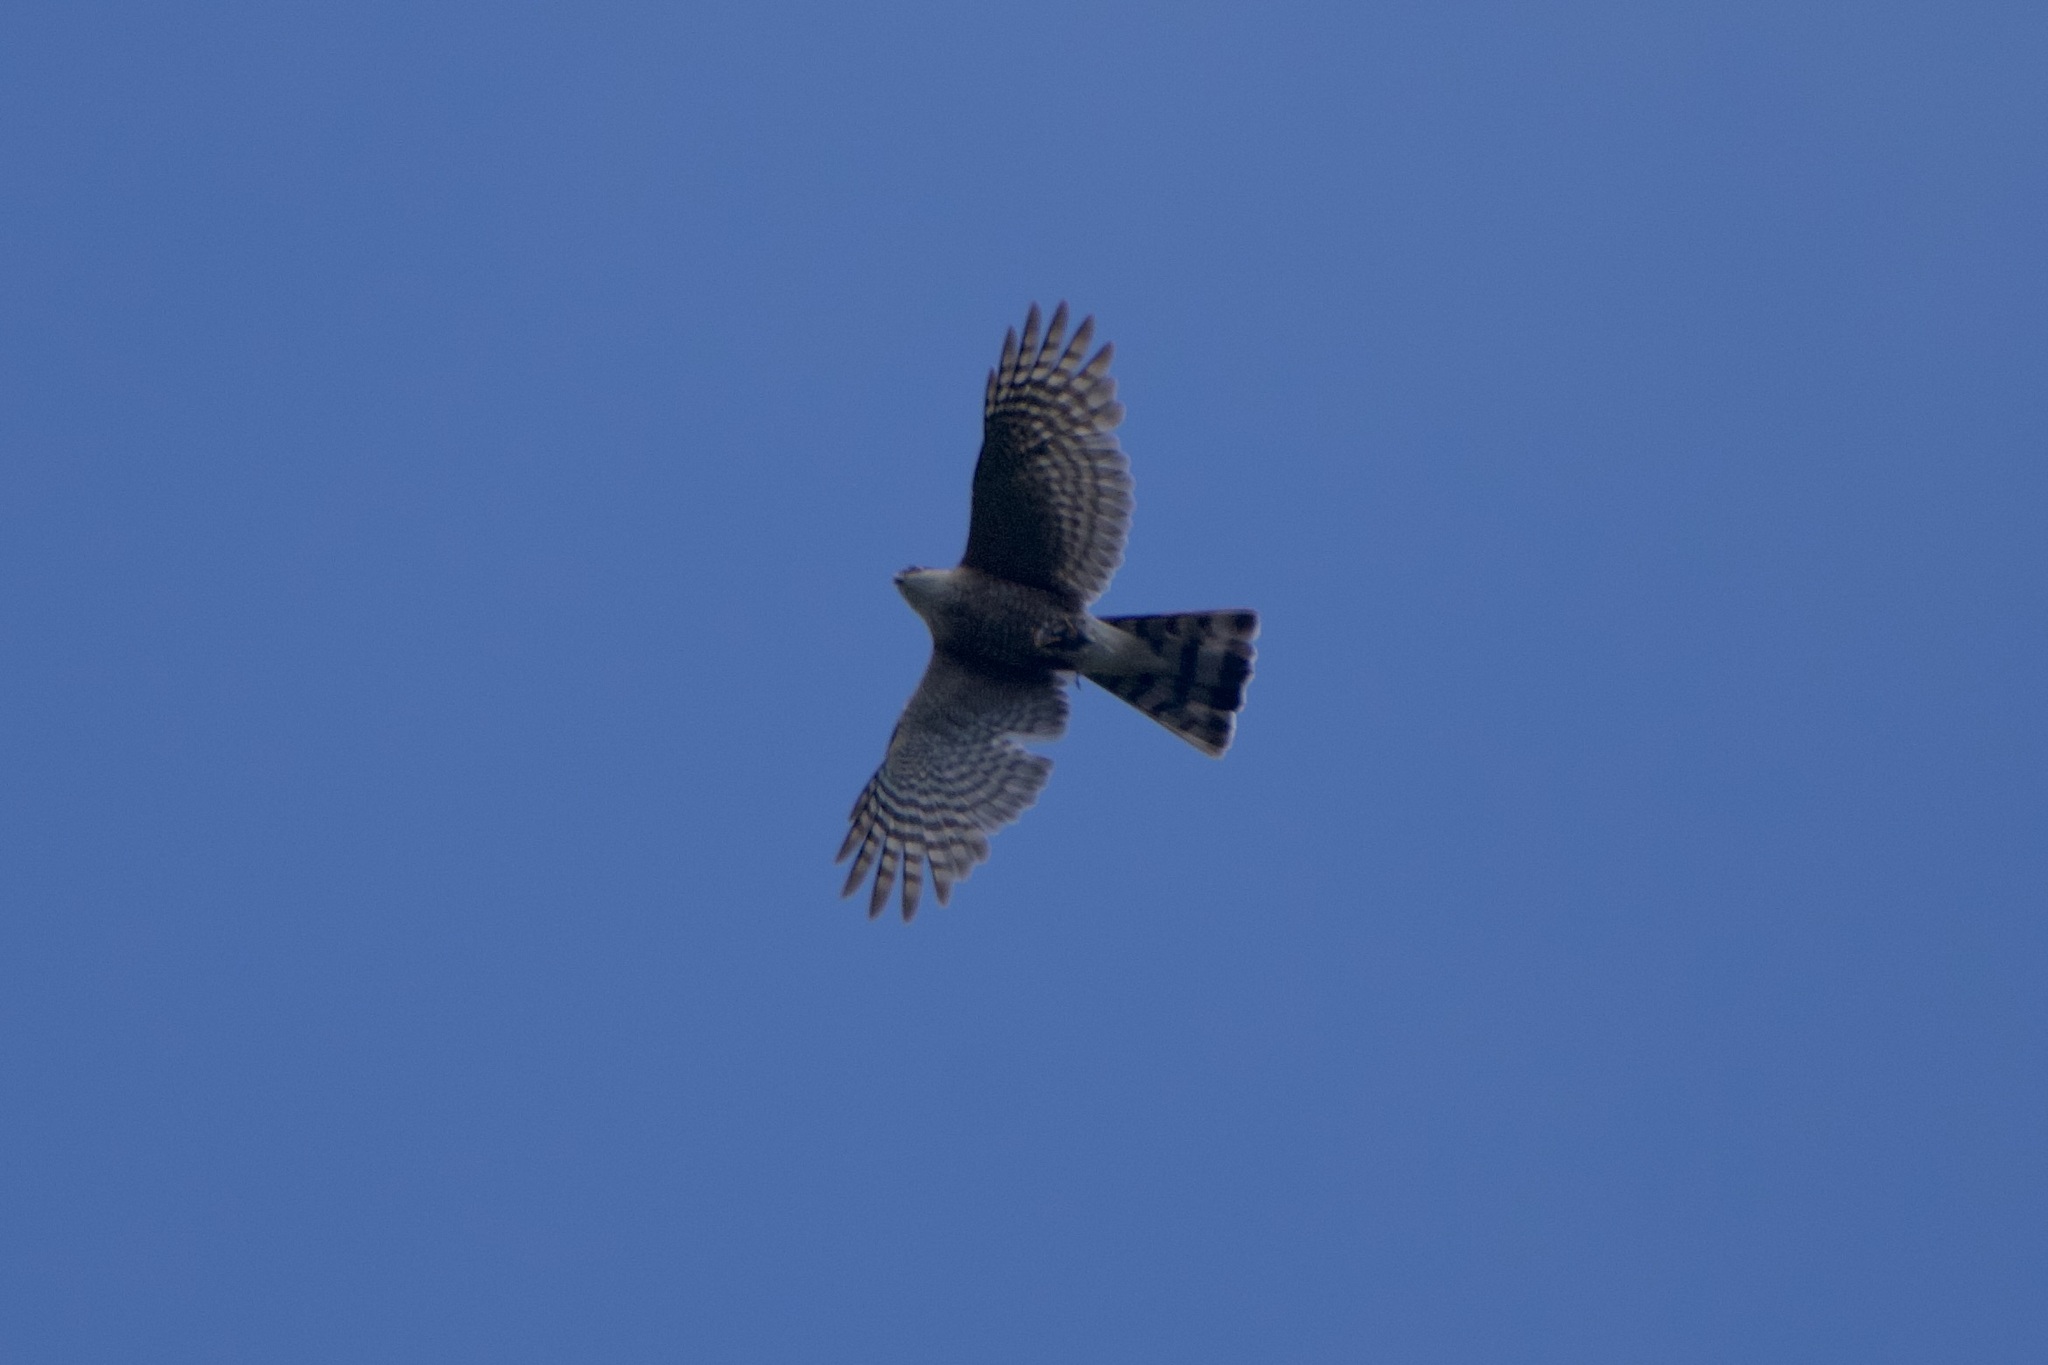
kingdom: Animalia
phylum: Chordata
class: Aves
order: Accipitriformes
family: Accipitridae
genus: Accipiter
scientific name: Accipiter striatus
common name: Sharp-shinned hawk
